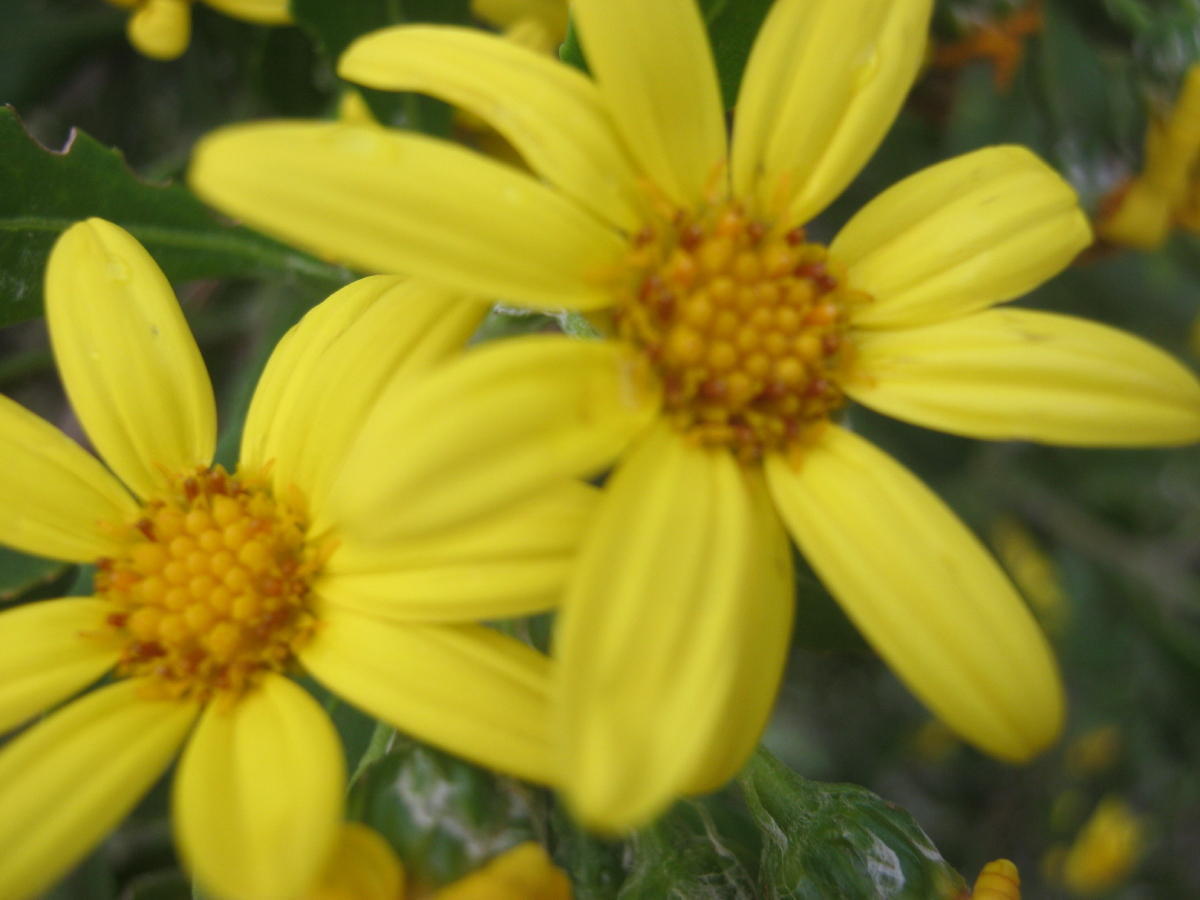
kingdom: Plantae
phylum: Tracheophyta
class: Magnoliopsida
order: Asterales
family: Asteraceae
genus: Osteospermum
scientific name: Osteospermum moniliferum
